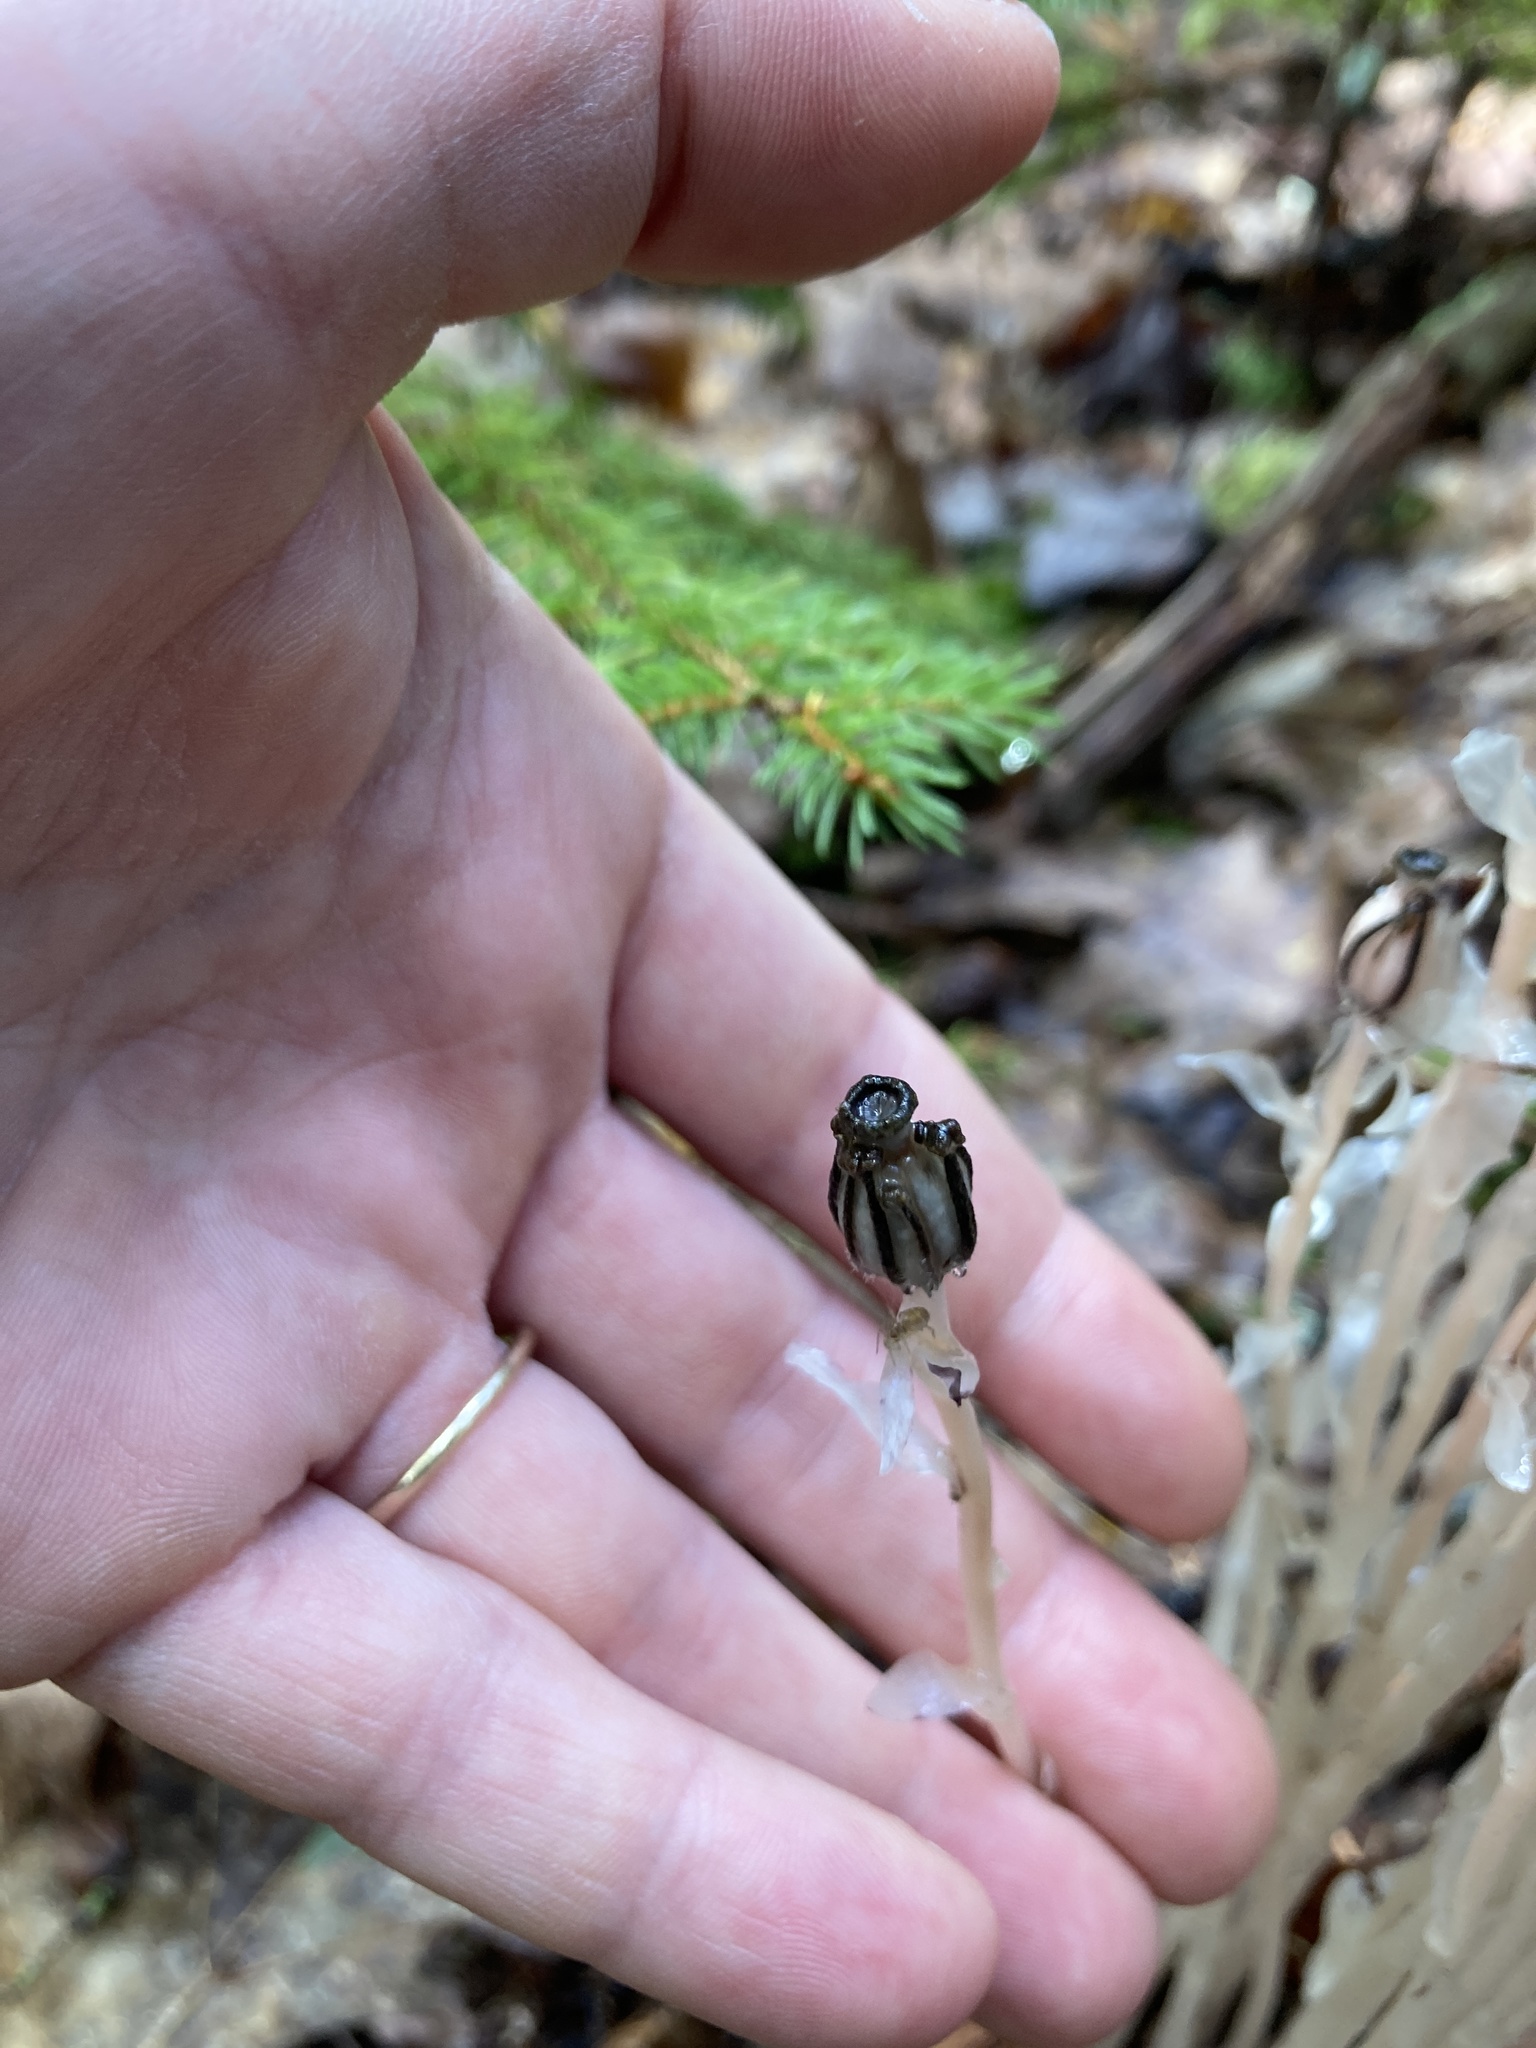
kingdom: Plantae
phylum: Tracheophyta
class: Magnoliopsida
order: Ericales
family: Ericaceae
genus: Monotropa
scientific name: Monotropa uniflora
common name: Convulsion root
